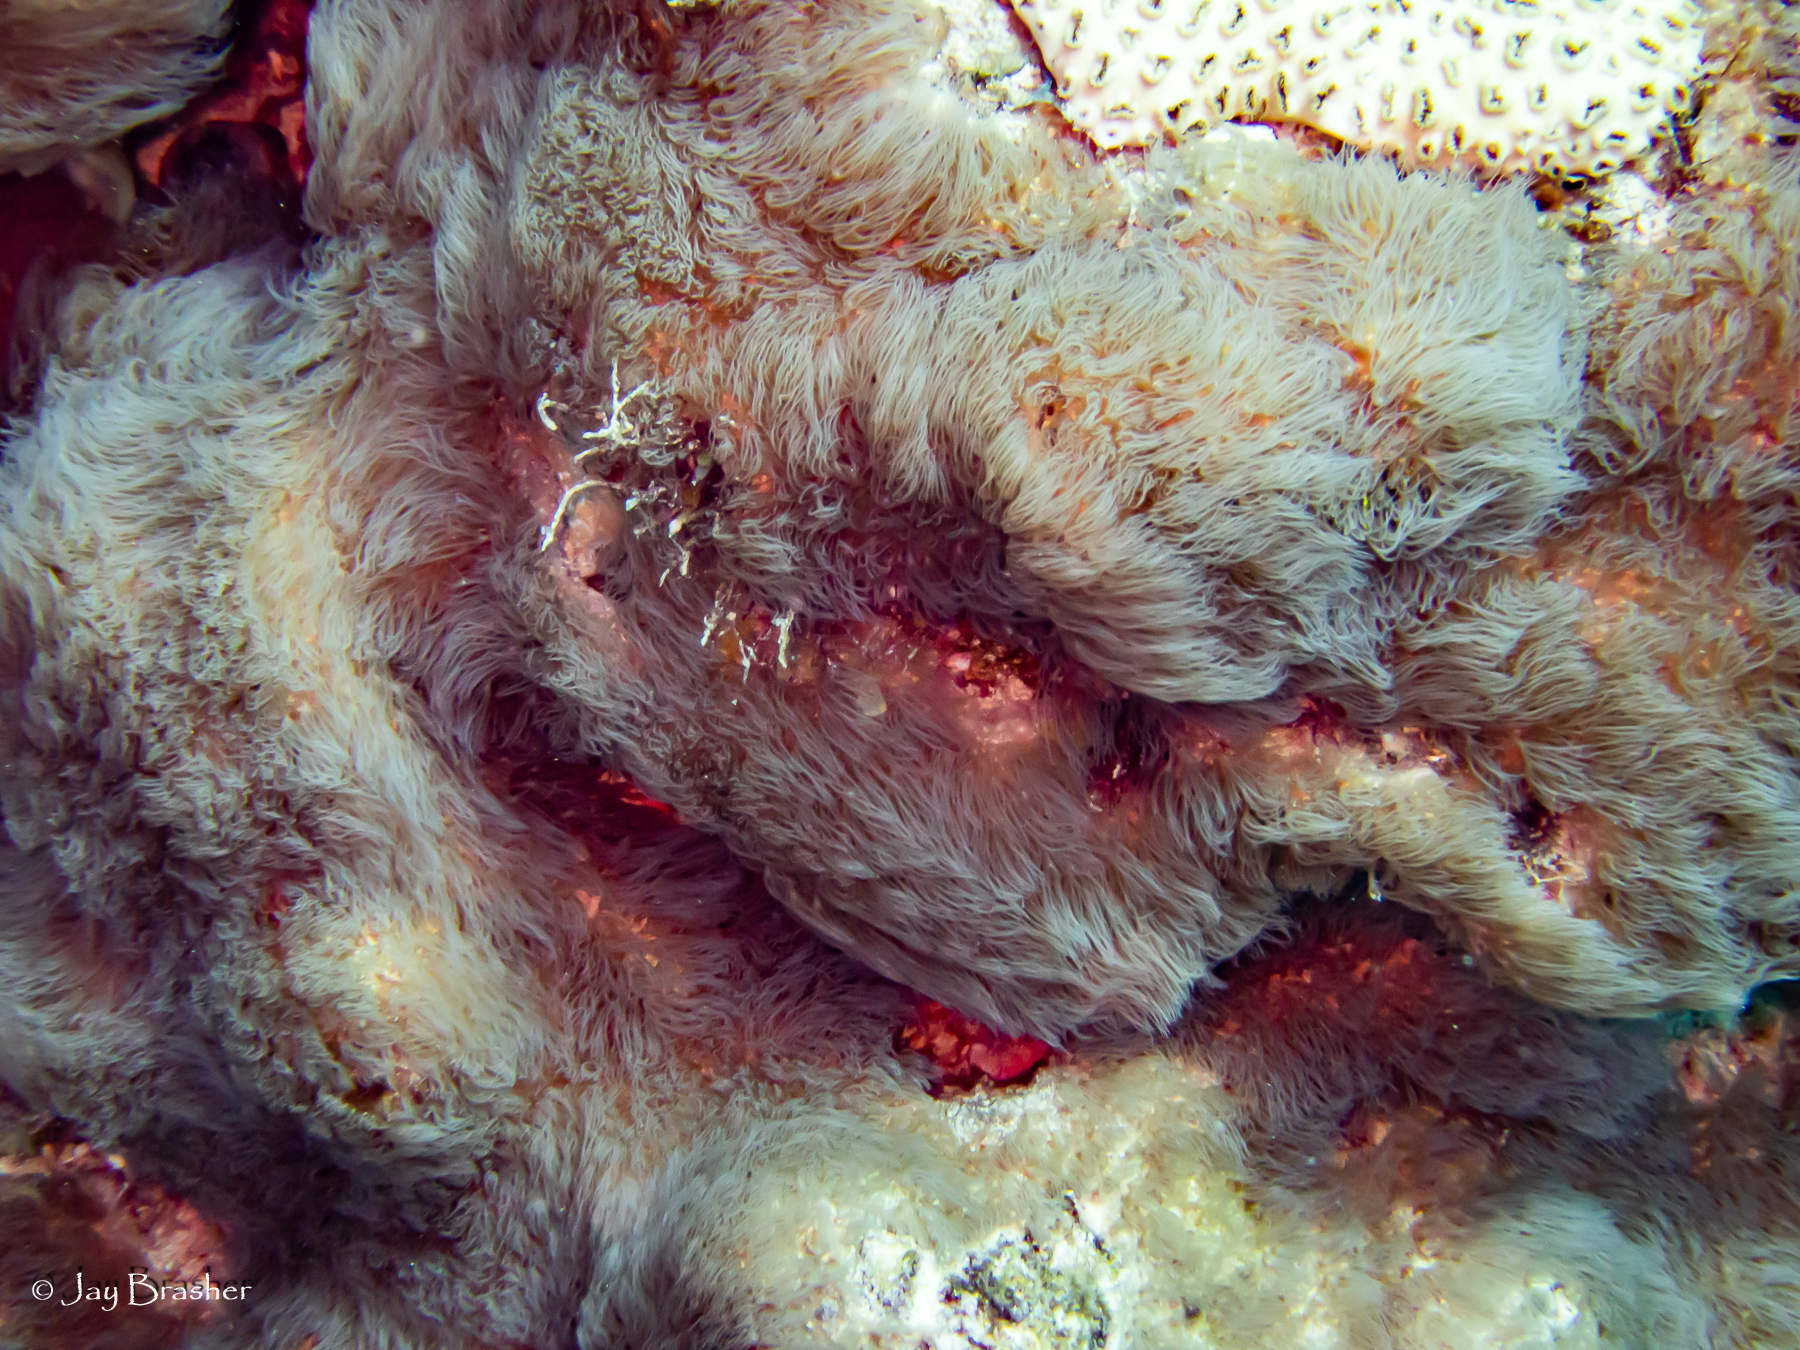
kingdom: Animalia
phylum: Cnidaria
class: Anthozoa
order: Scleralcyonacea
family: Erythropodiidae
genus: Erythropodium
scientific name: Erythropodium caribaeorum
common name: Encrusting gorgonian
